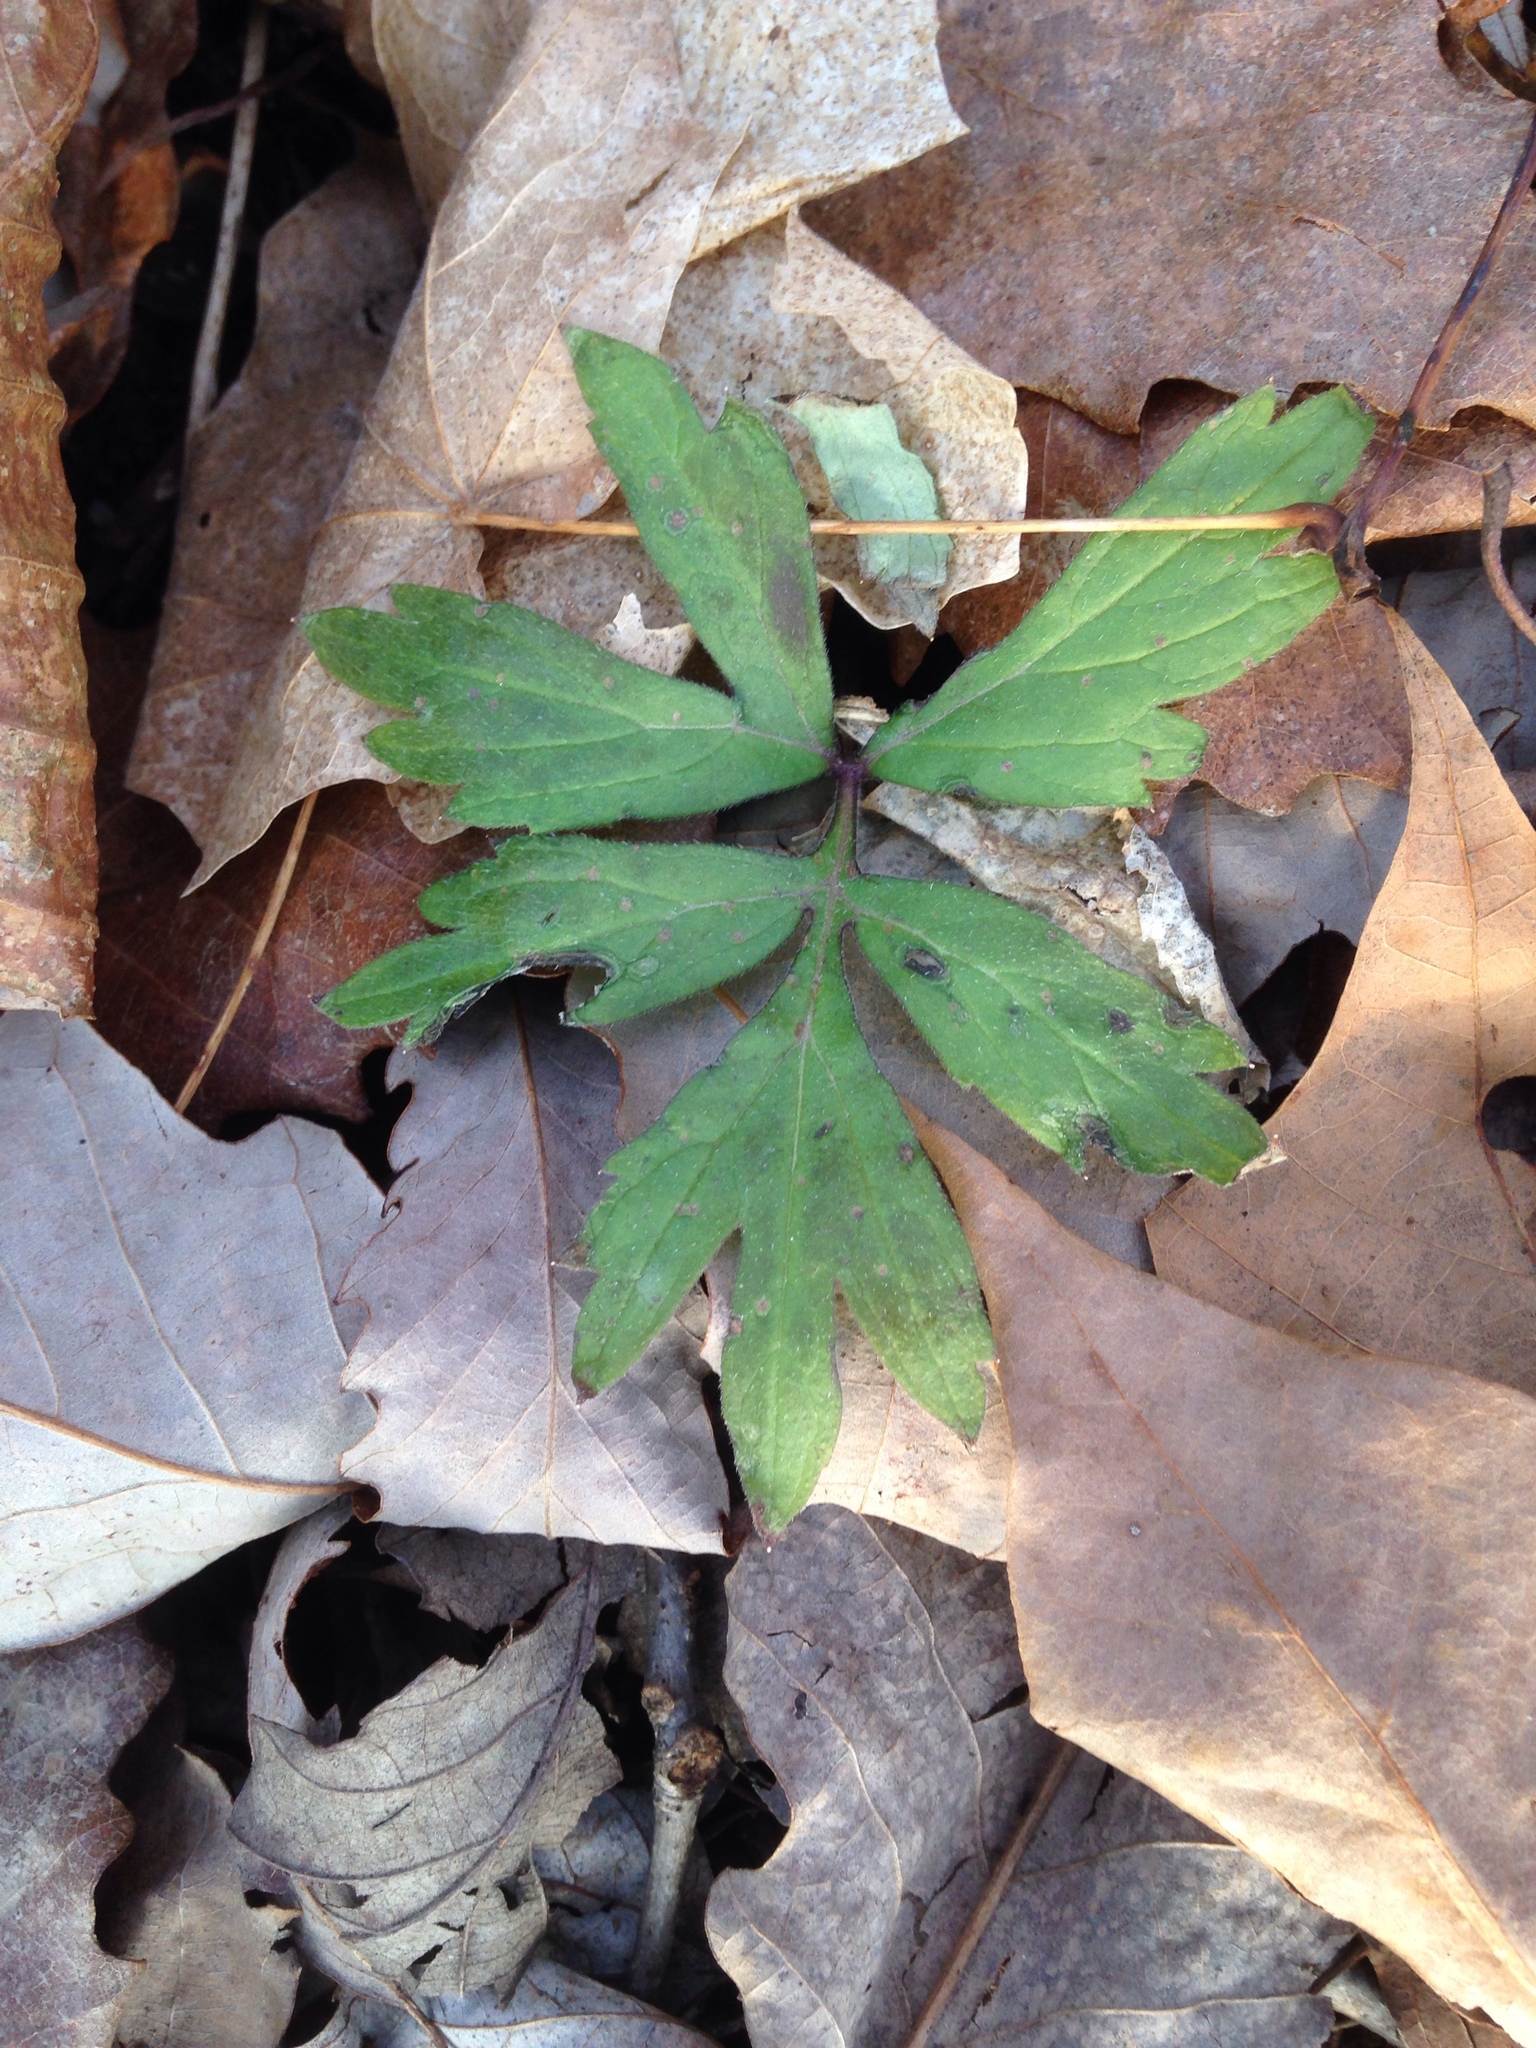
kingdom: Plantae
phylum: Tracheophyta
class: Magnoliopsida
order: Boraginales
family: Hydrophyllaceae
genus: Hydrophyllum
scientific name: Hydrophyllum virginianum
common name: Virginia waterleaf
